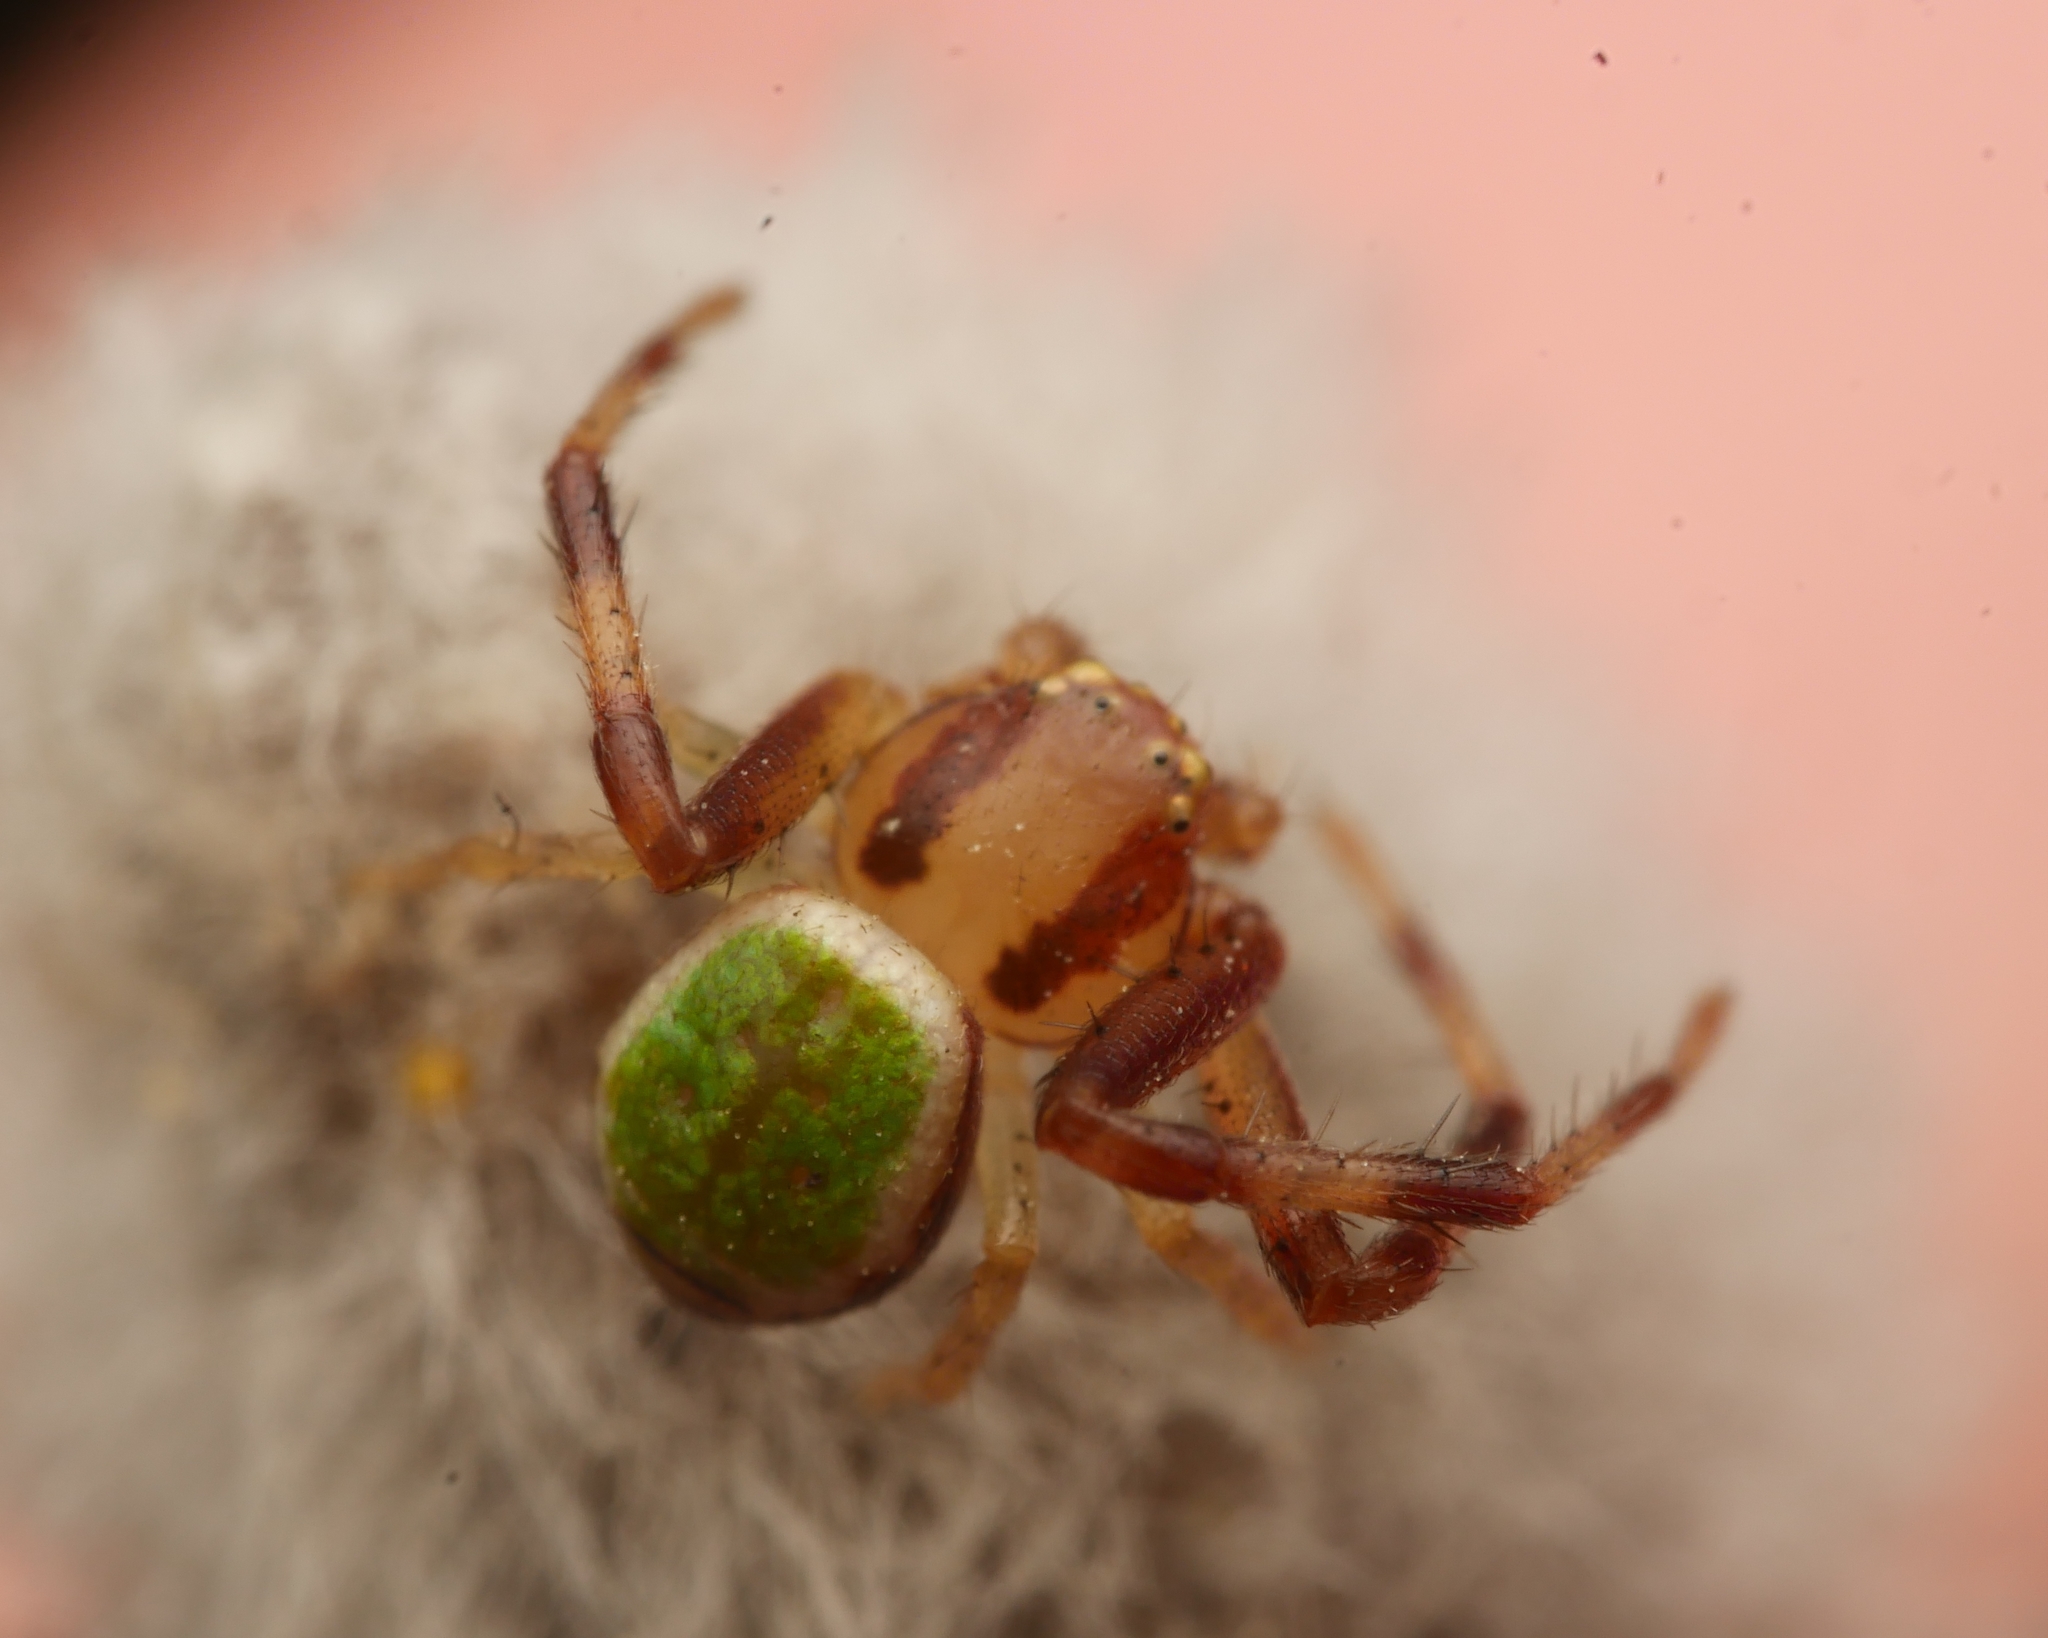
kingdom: Animalia
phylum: Arthropoda
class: Arachnida
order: Araneae
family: Thomisidae
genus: Ebrechtella
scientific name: Ebrechtella tricuspidata
